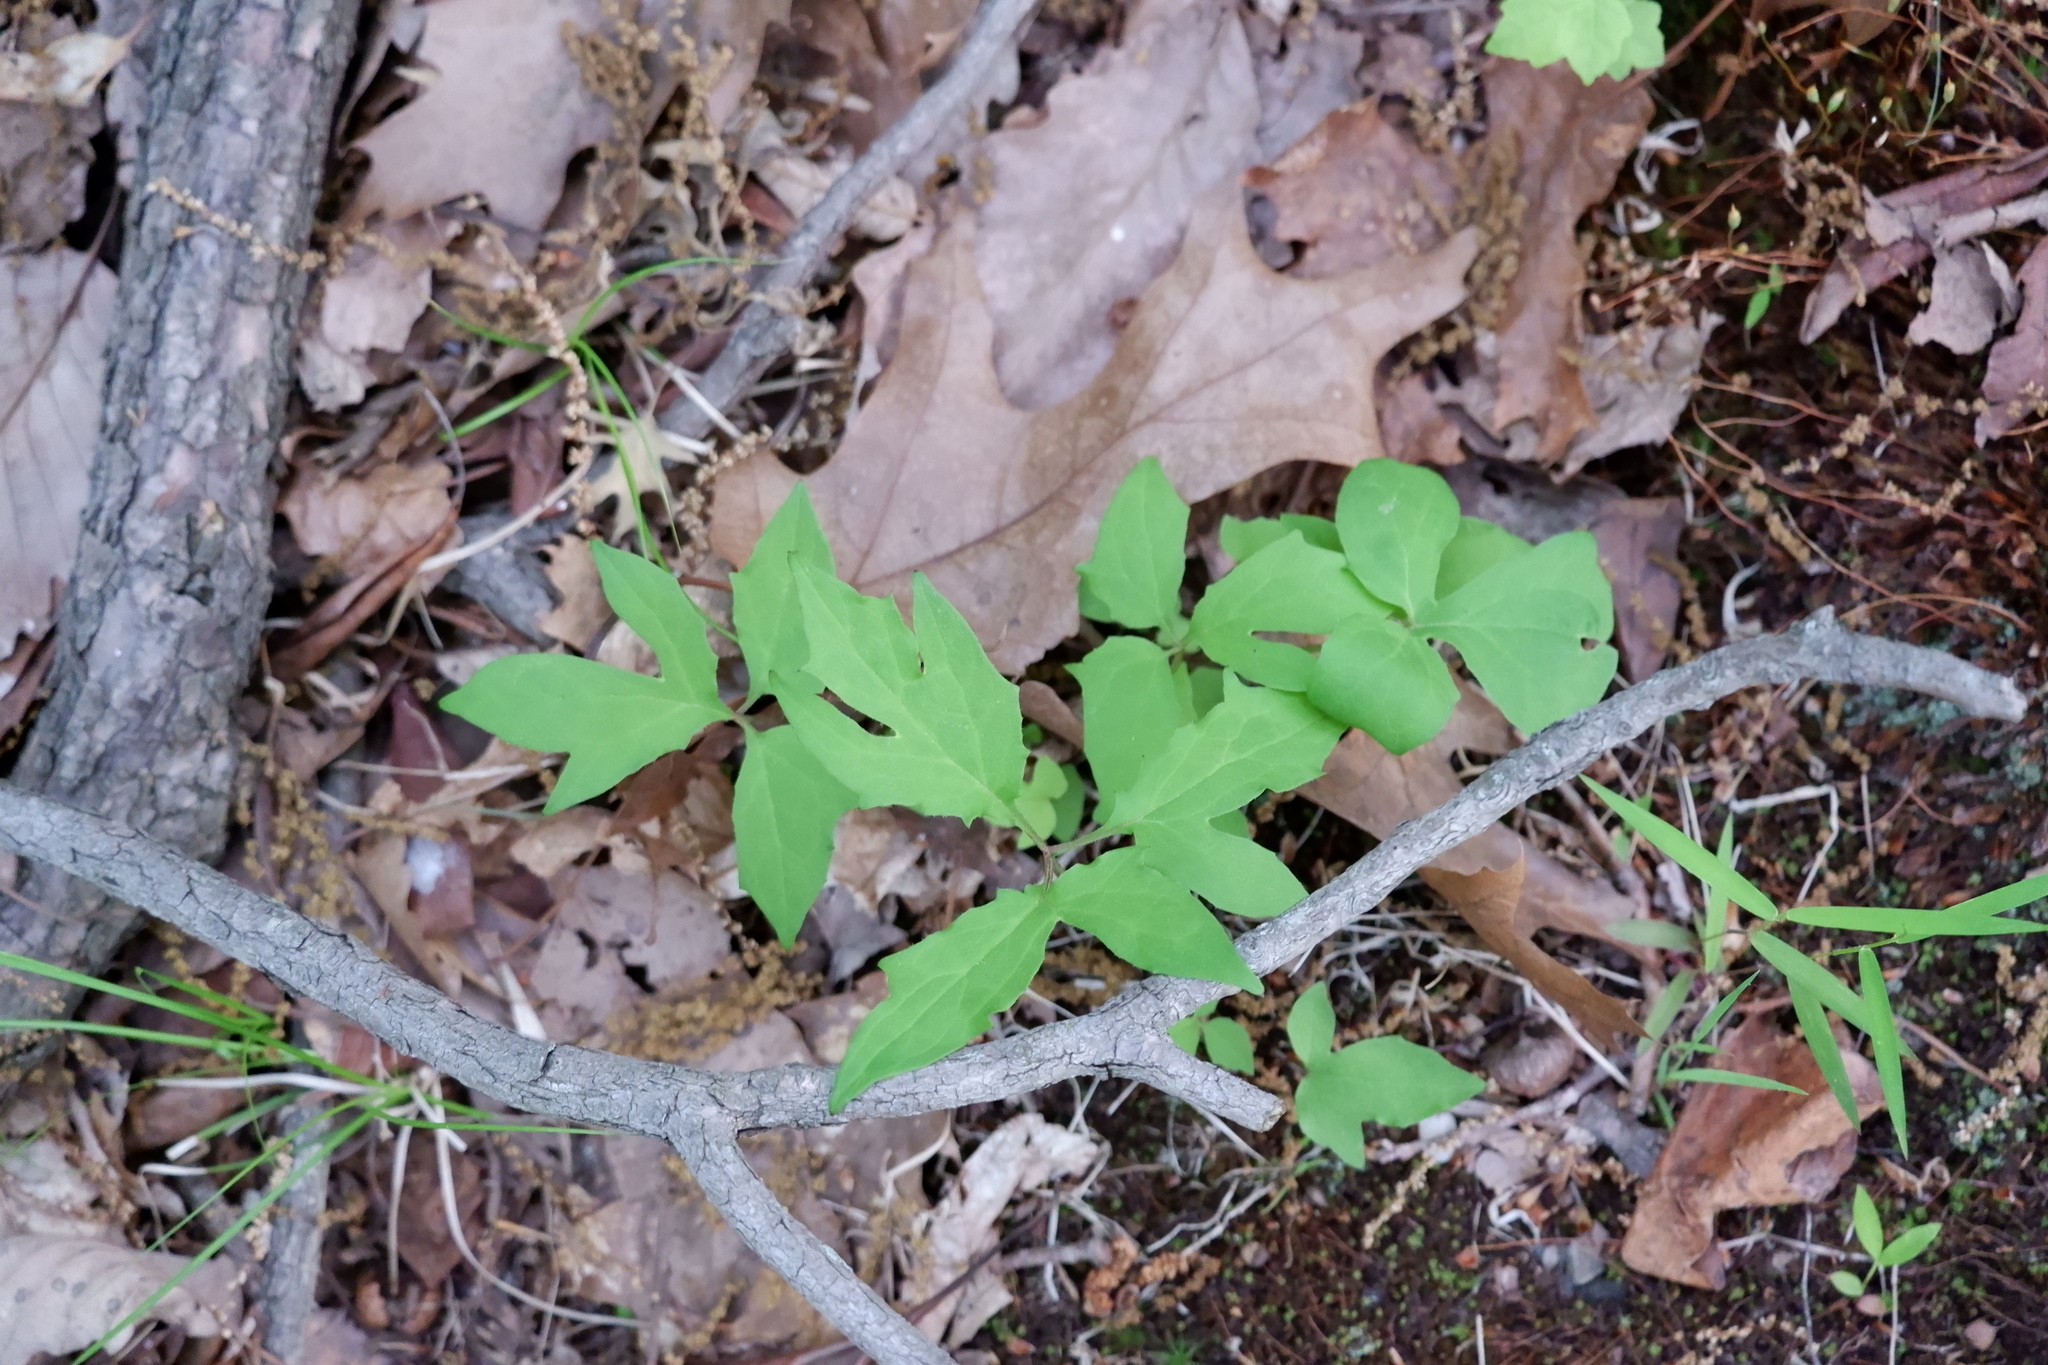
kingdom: Plantae
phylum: Tracheophyta
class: Magnoliopsida
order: Asterales
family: Asteraceae
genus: Nabalus
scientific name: Nabalus
